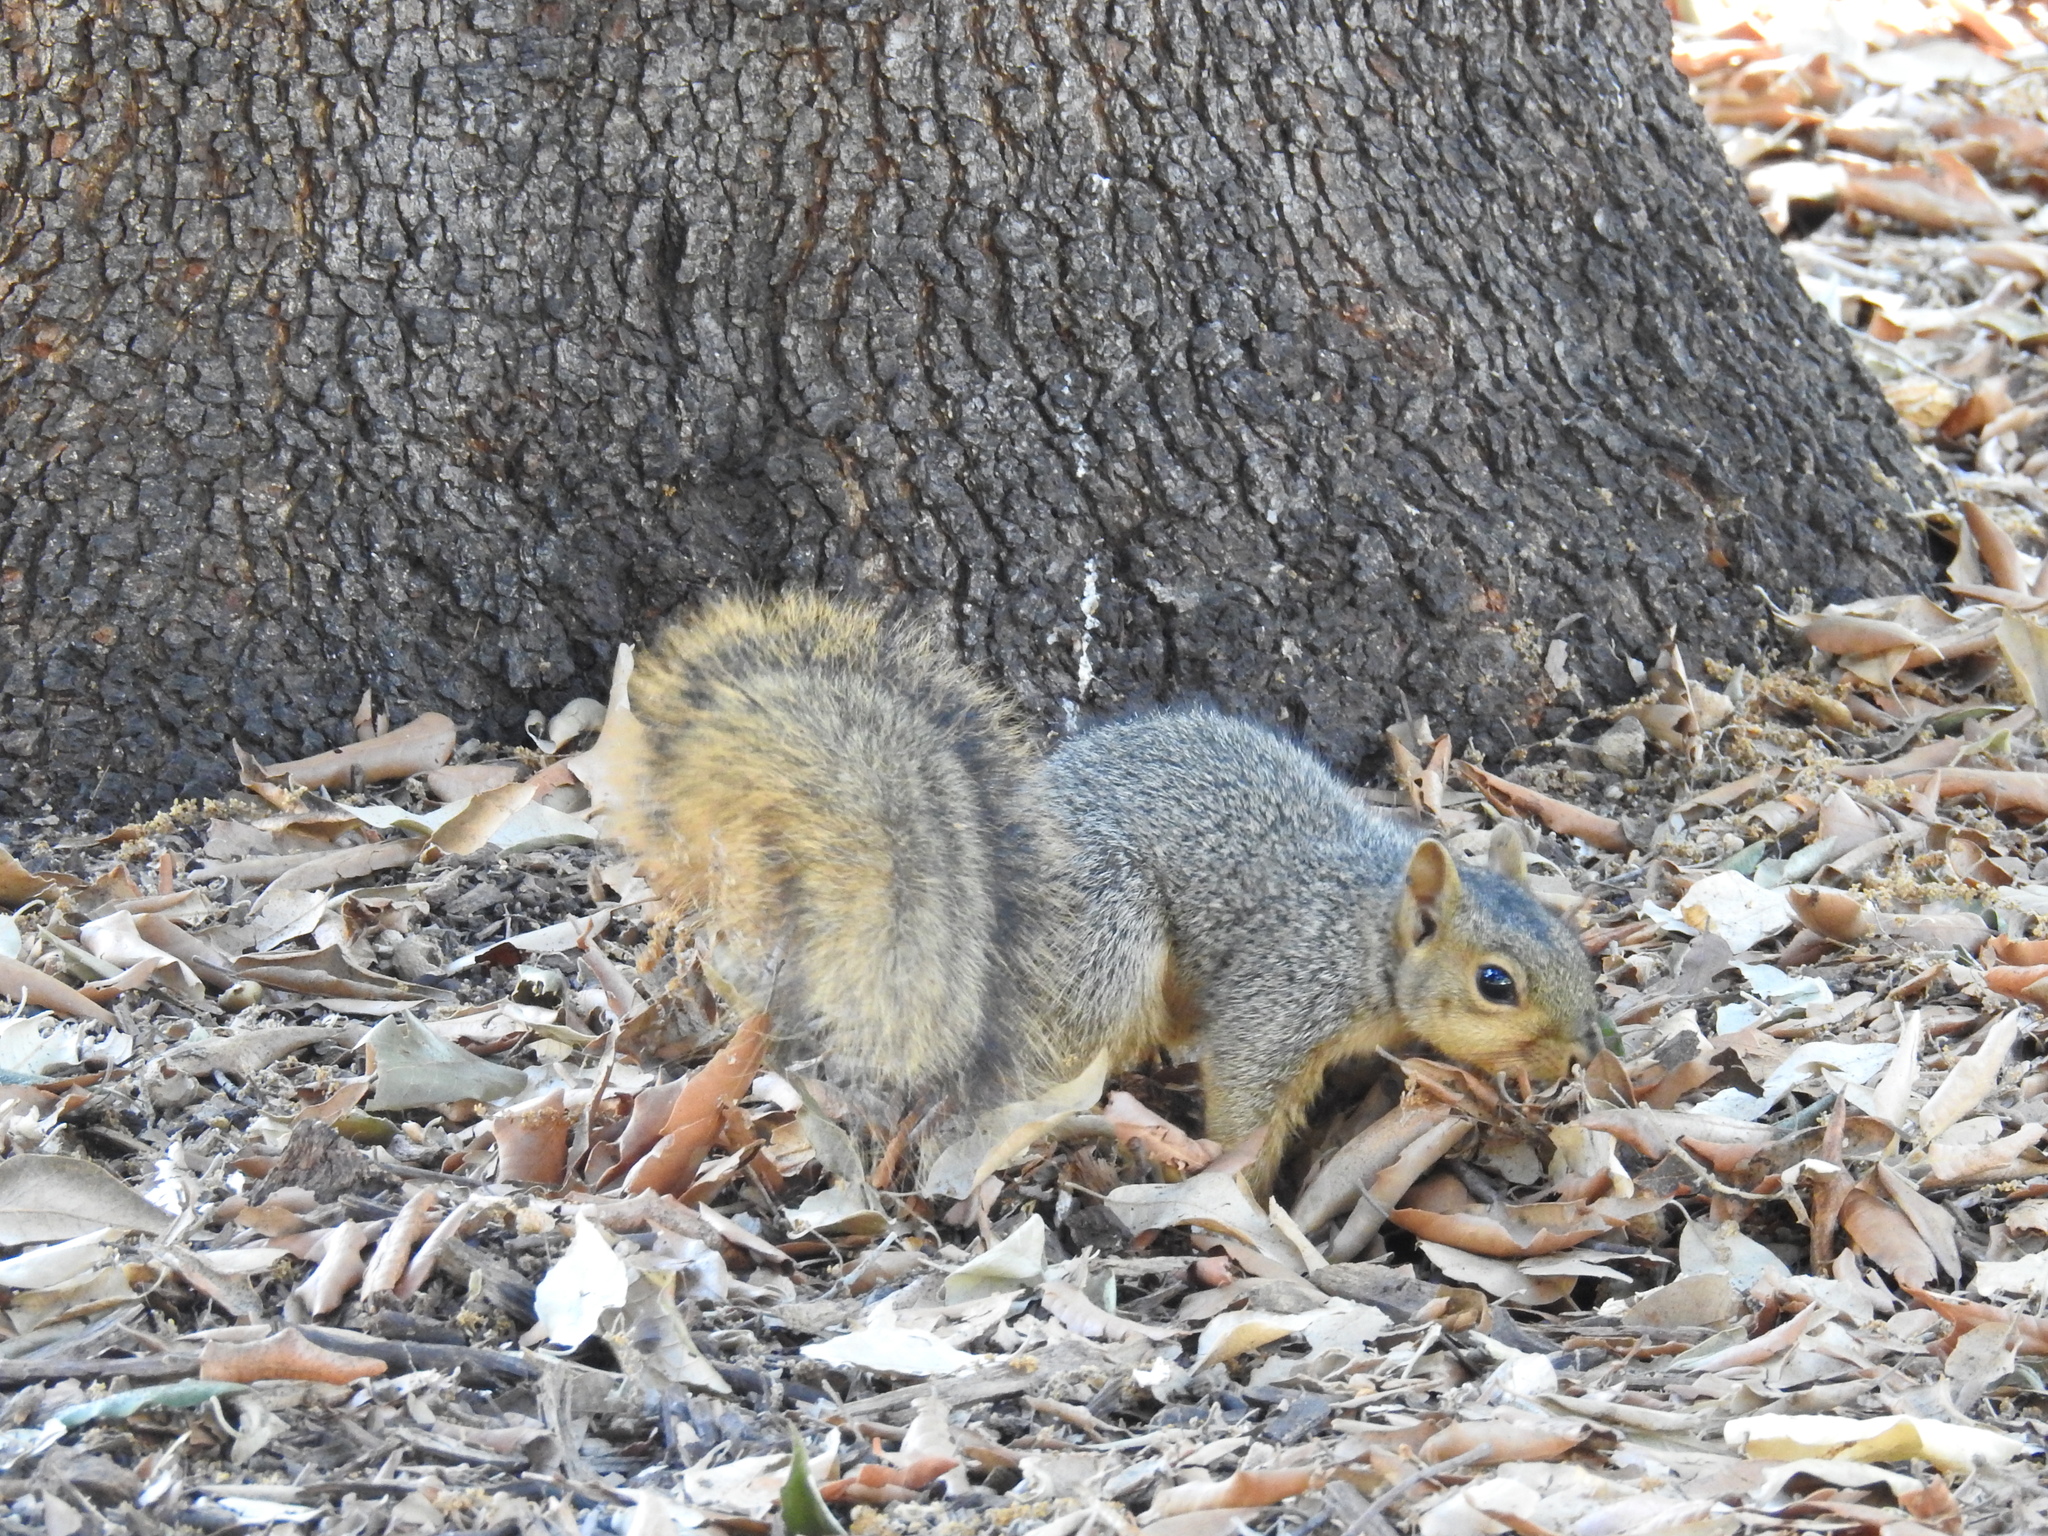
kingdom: Animalia
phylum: Chordata
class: Mammalia
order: Rodentia
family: Sciuridae
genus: Sciurus
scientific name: Sciurus niger
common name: Fox squirrel
